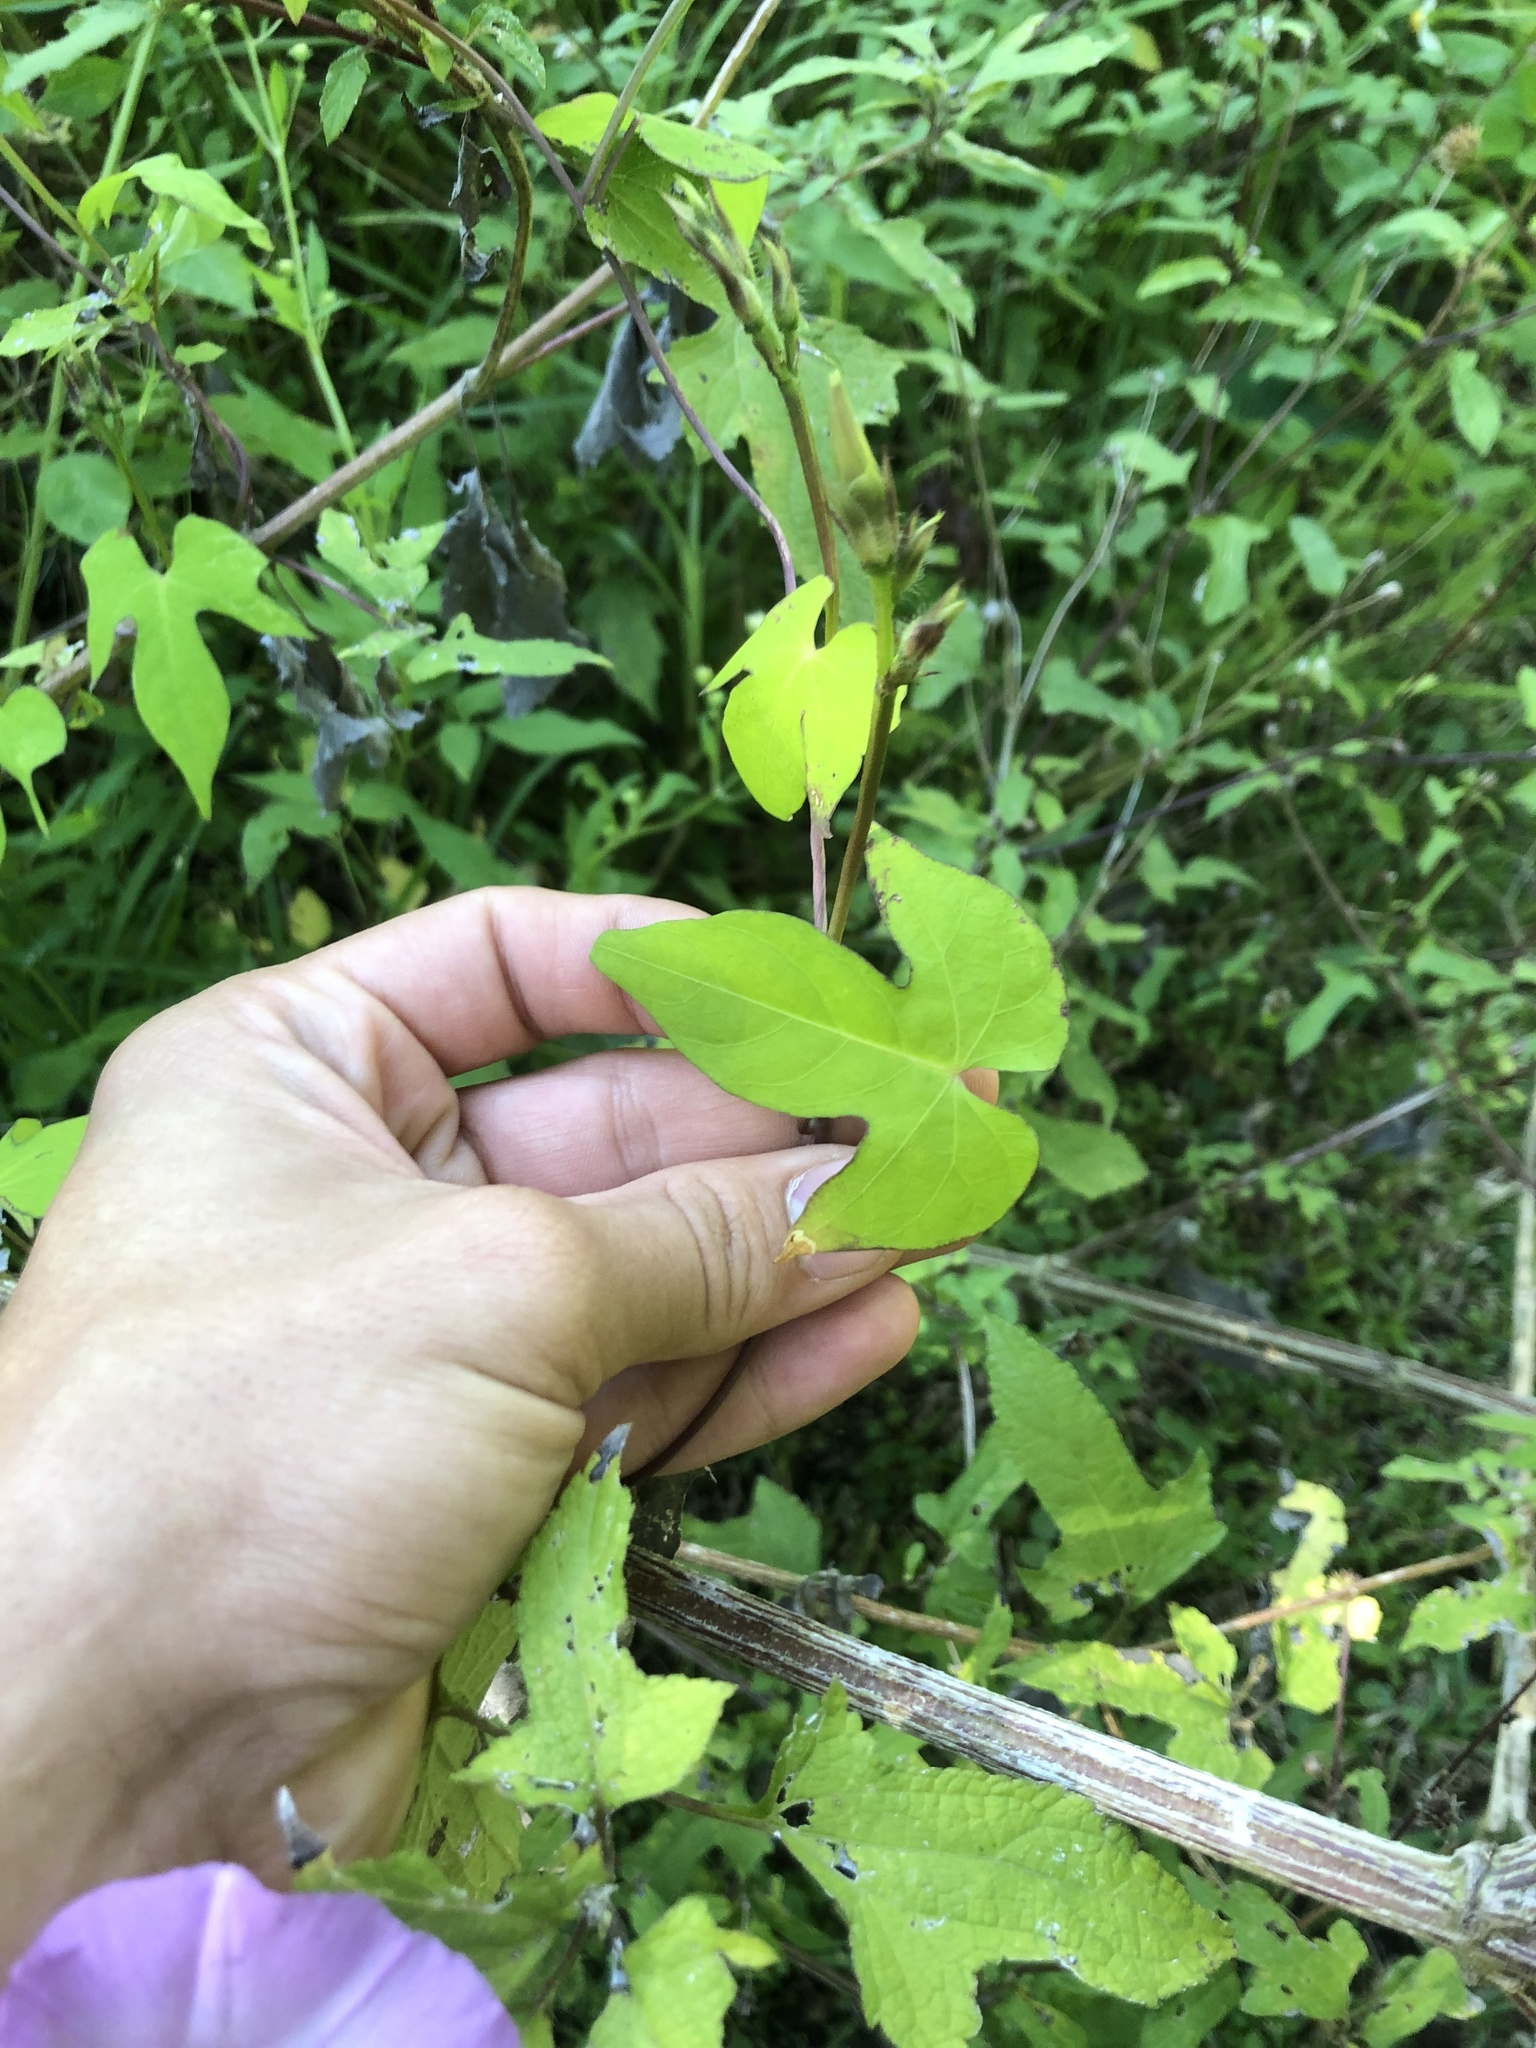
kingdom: Plantae
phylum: Tracheophyta
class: Magnoliopsida
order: Solanales
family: Convolvulaceae
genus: Ipomoea
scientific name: Ipomoea cordatotriloba
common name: Cotton morning glory
